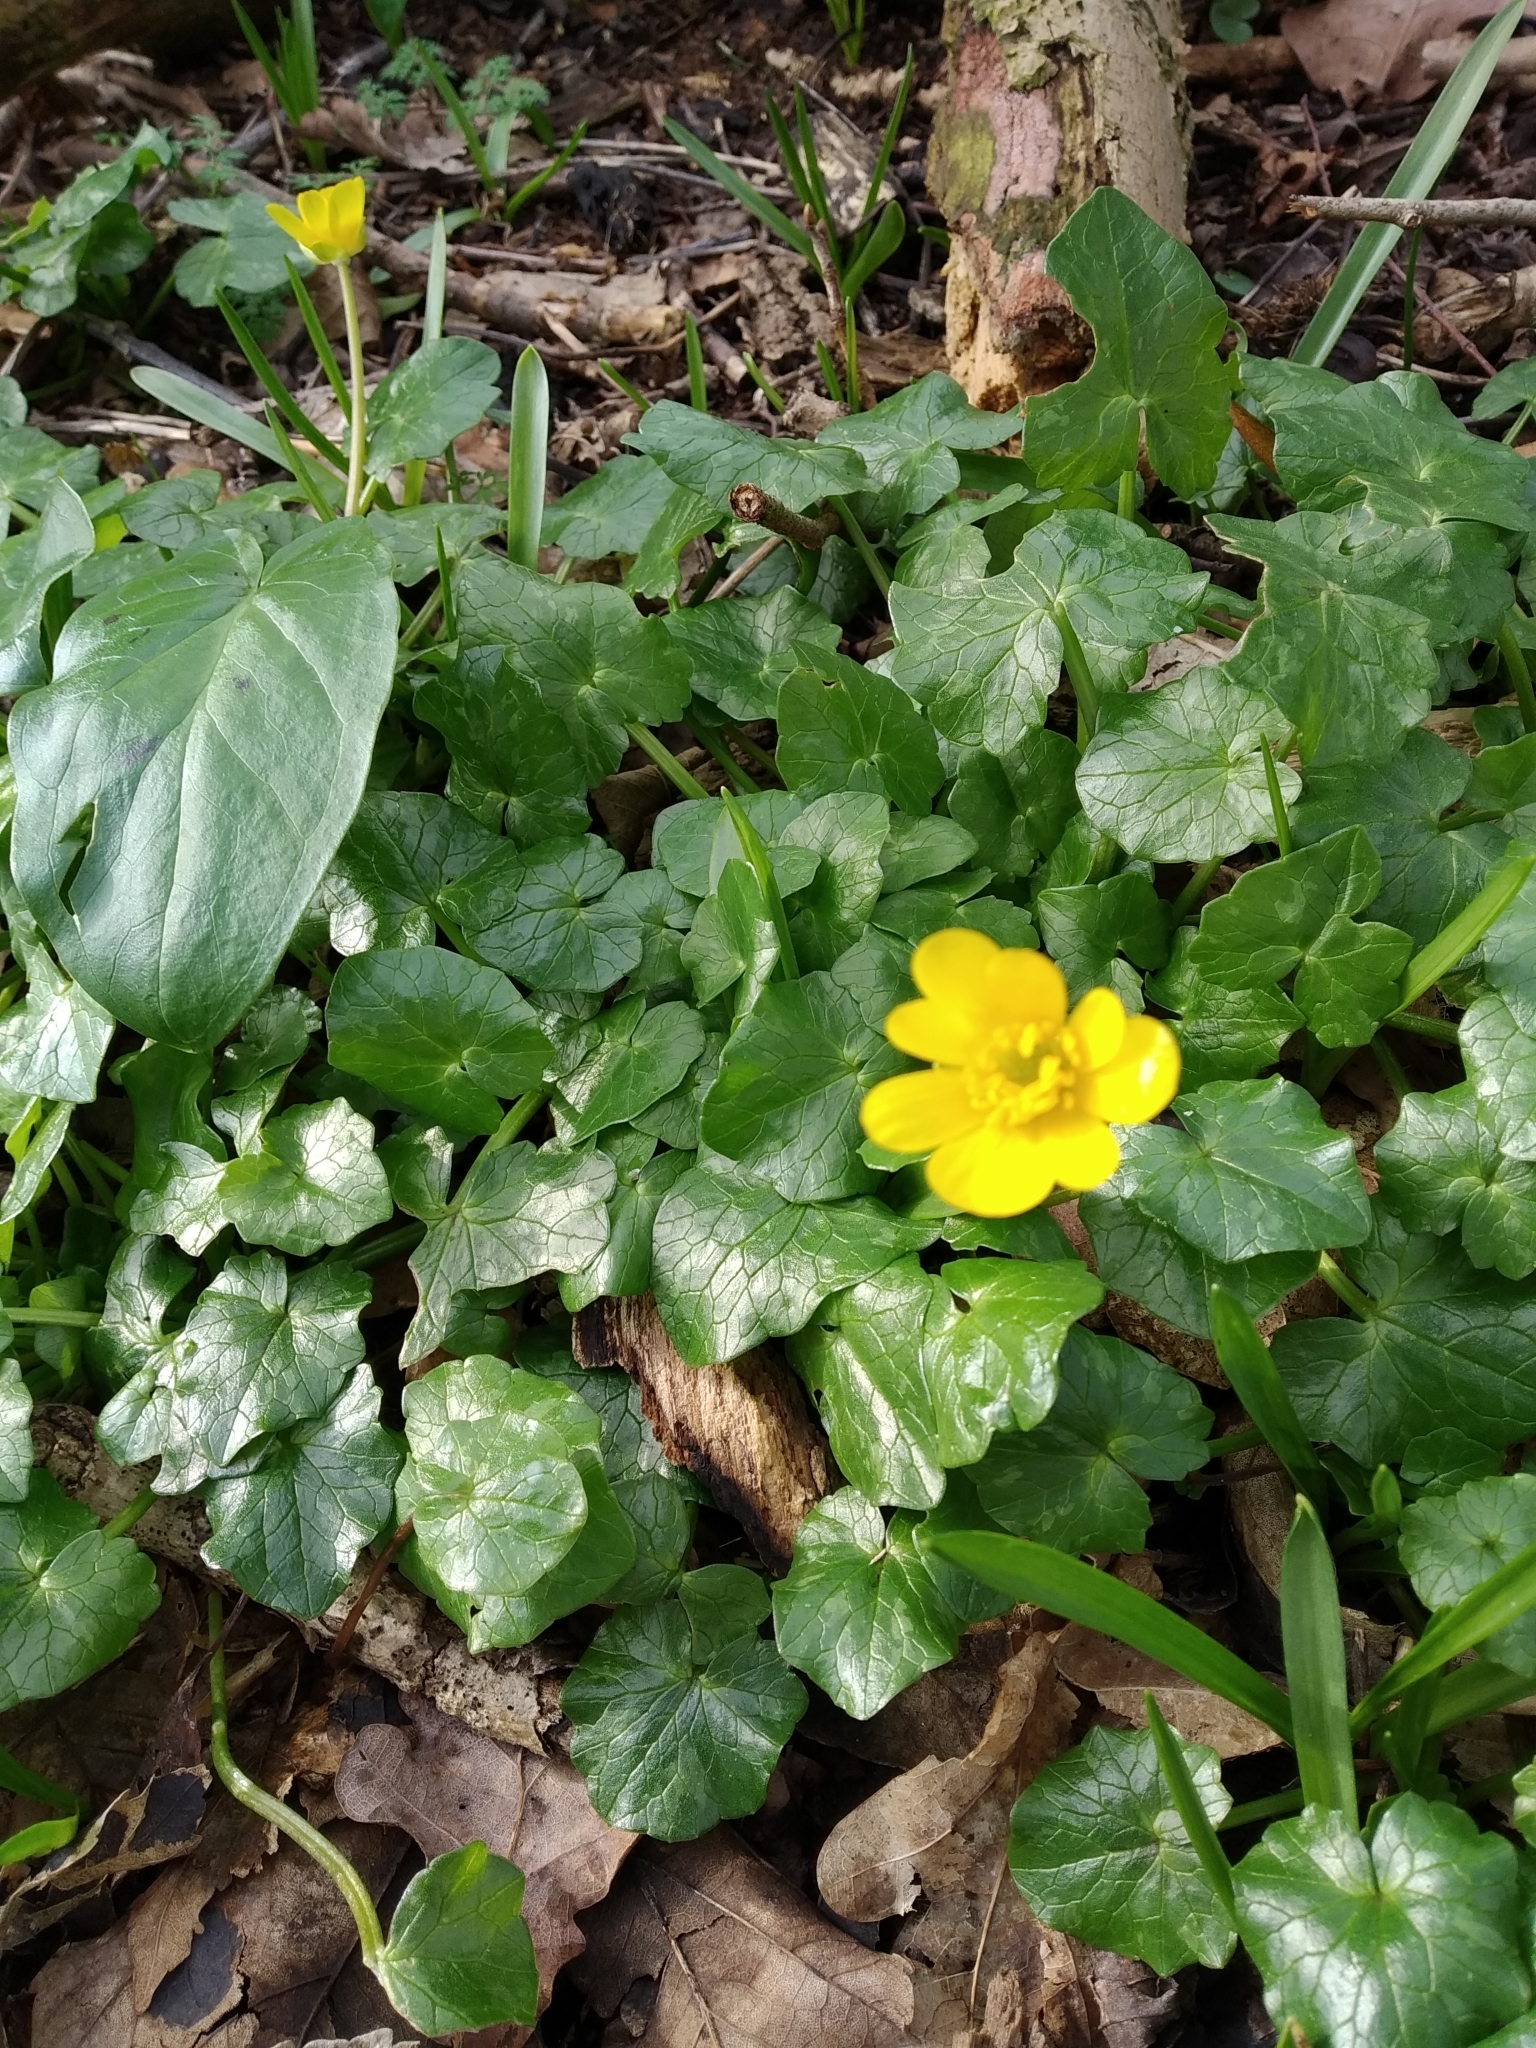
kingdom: Plantae
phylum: Tracheophyta
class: Magnoliopsida
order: Ranunculales
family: Ranunculaceae
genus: Ficaria
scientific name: Ficaria verna
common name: Lesser celandine
